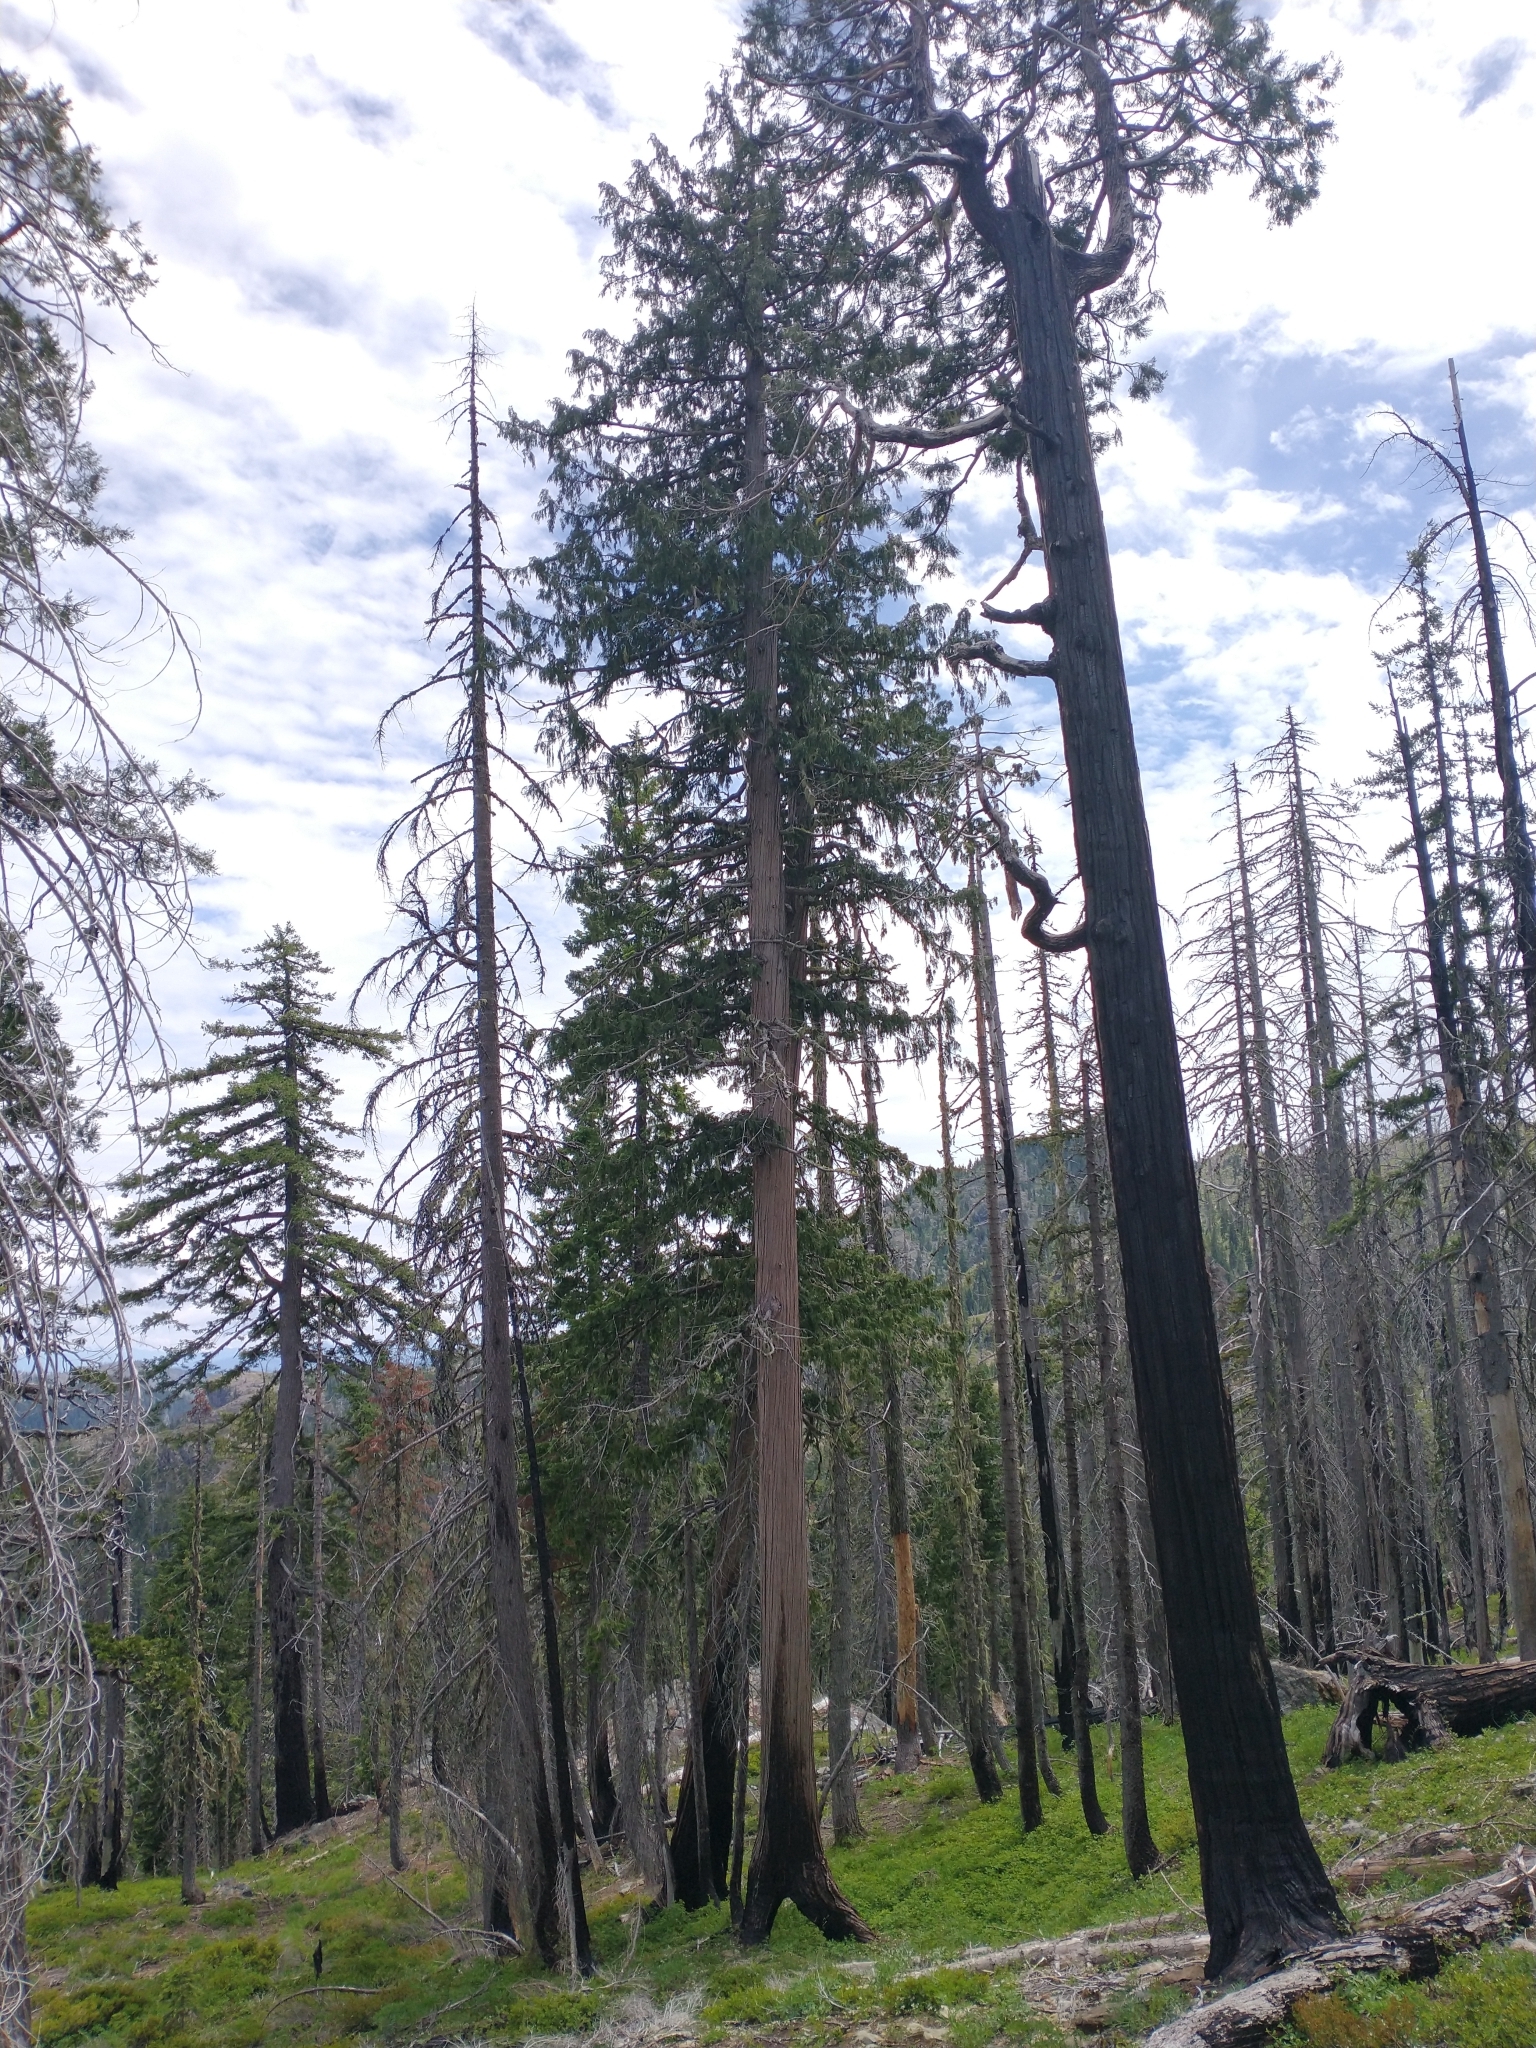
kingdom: Plantae
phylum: Tracheophyta
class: Pinopsida
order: Pinales
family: Cupressaceae
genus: Chamaecyparis
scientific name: Chamaecyparis lawsoniana
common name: Lawson's cypress
